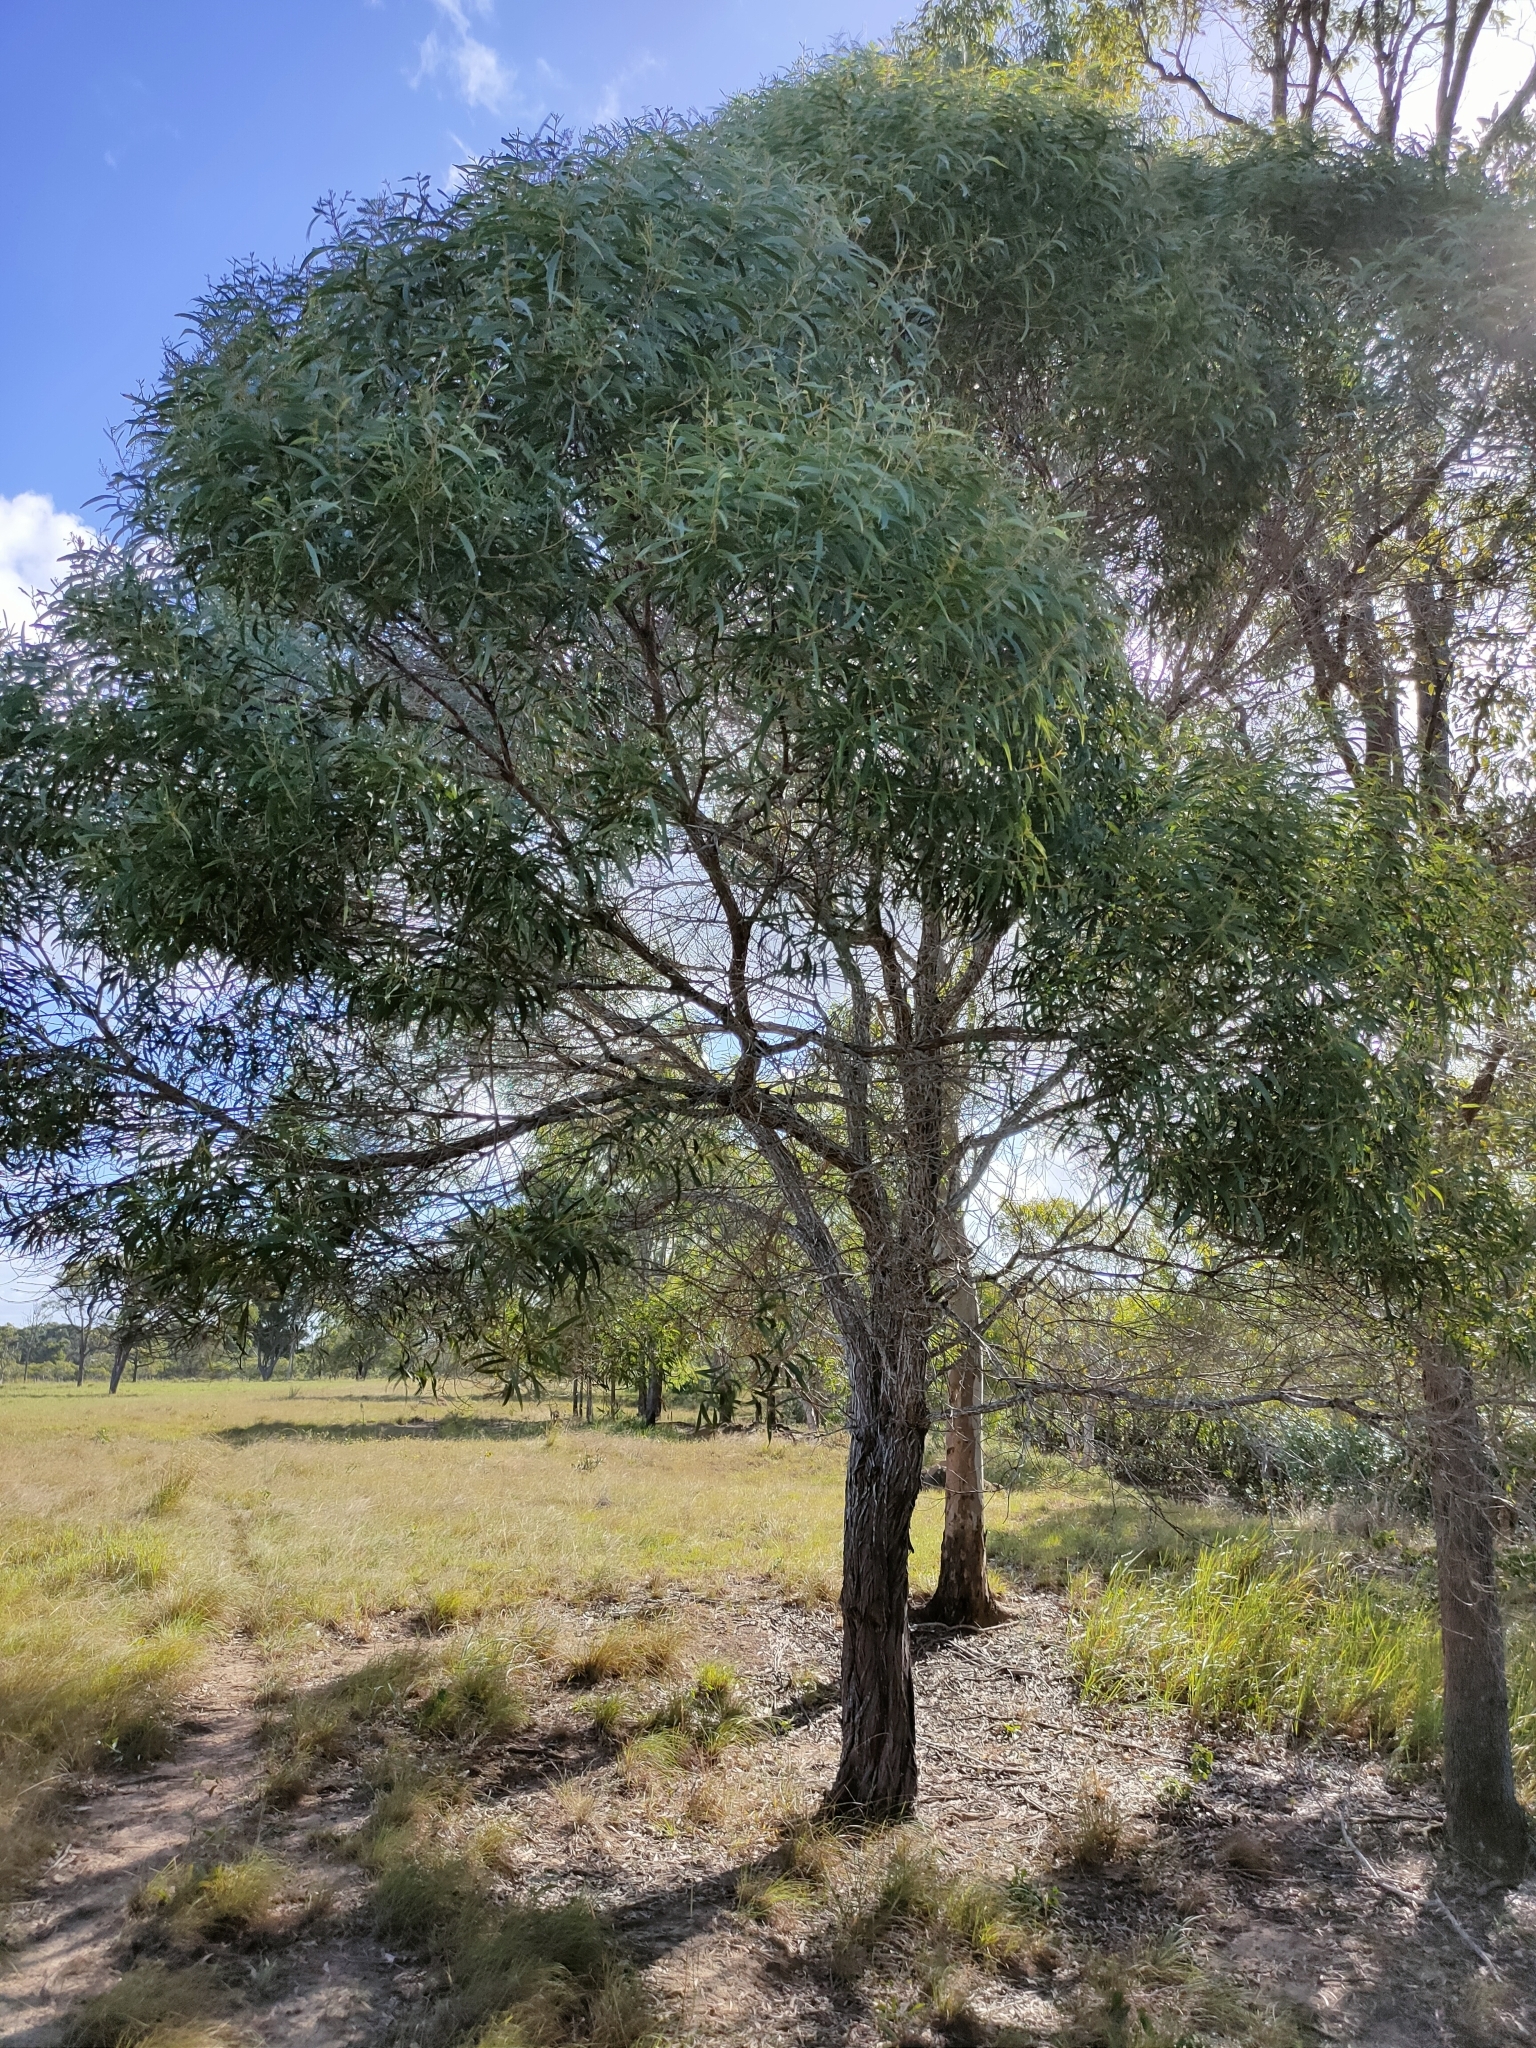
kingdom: Plantae
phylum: Tracheophyta
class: Magnoliopsida
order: Fabales
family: Fabaceae
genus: Acacia
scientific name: Acacia leiocalyx
